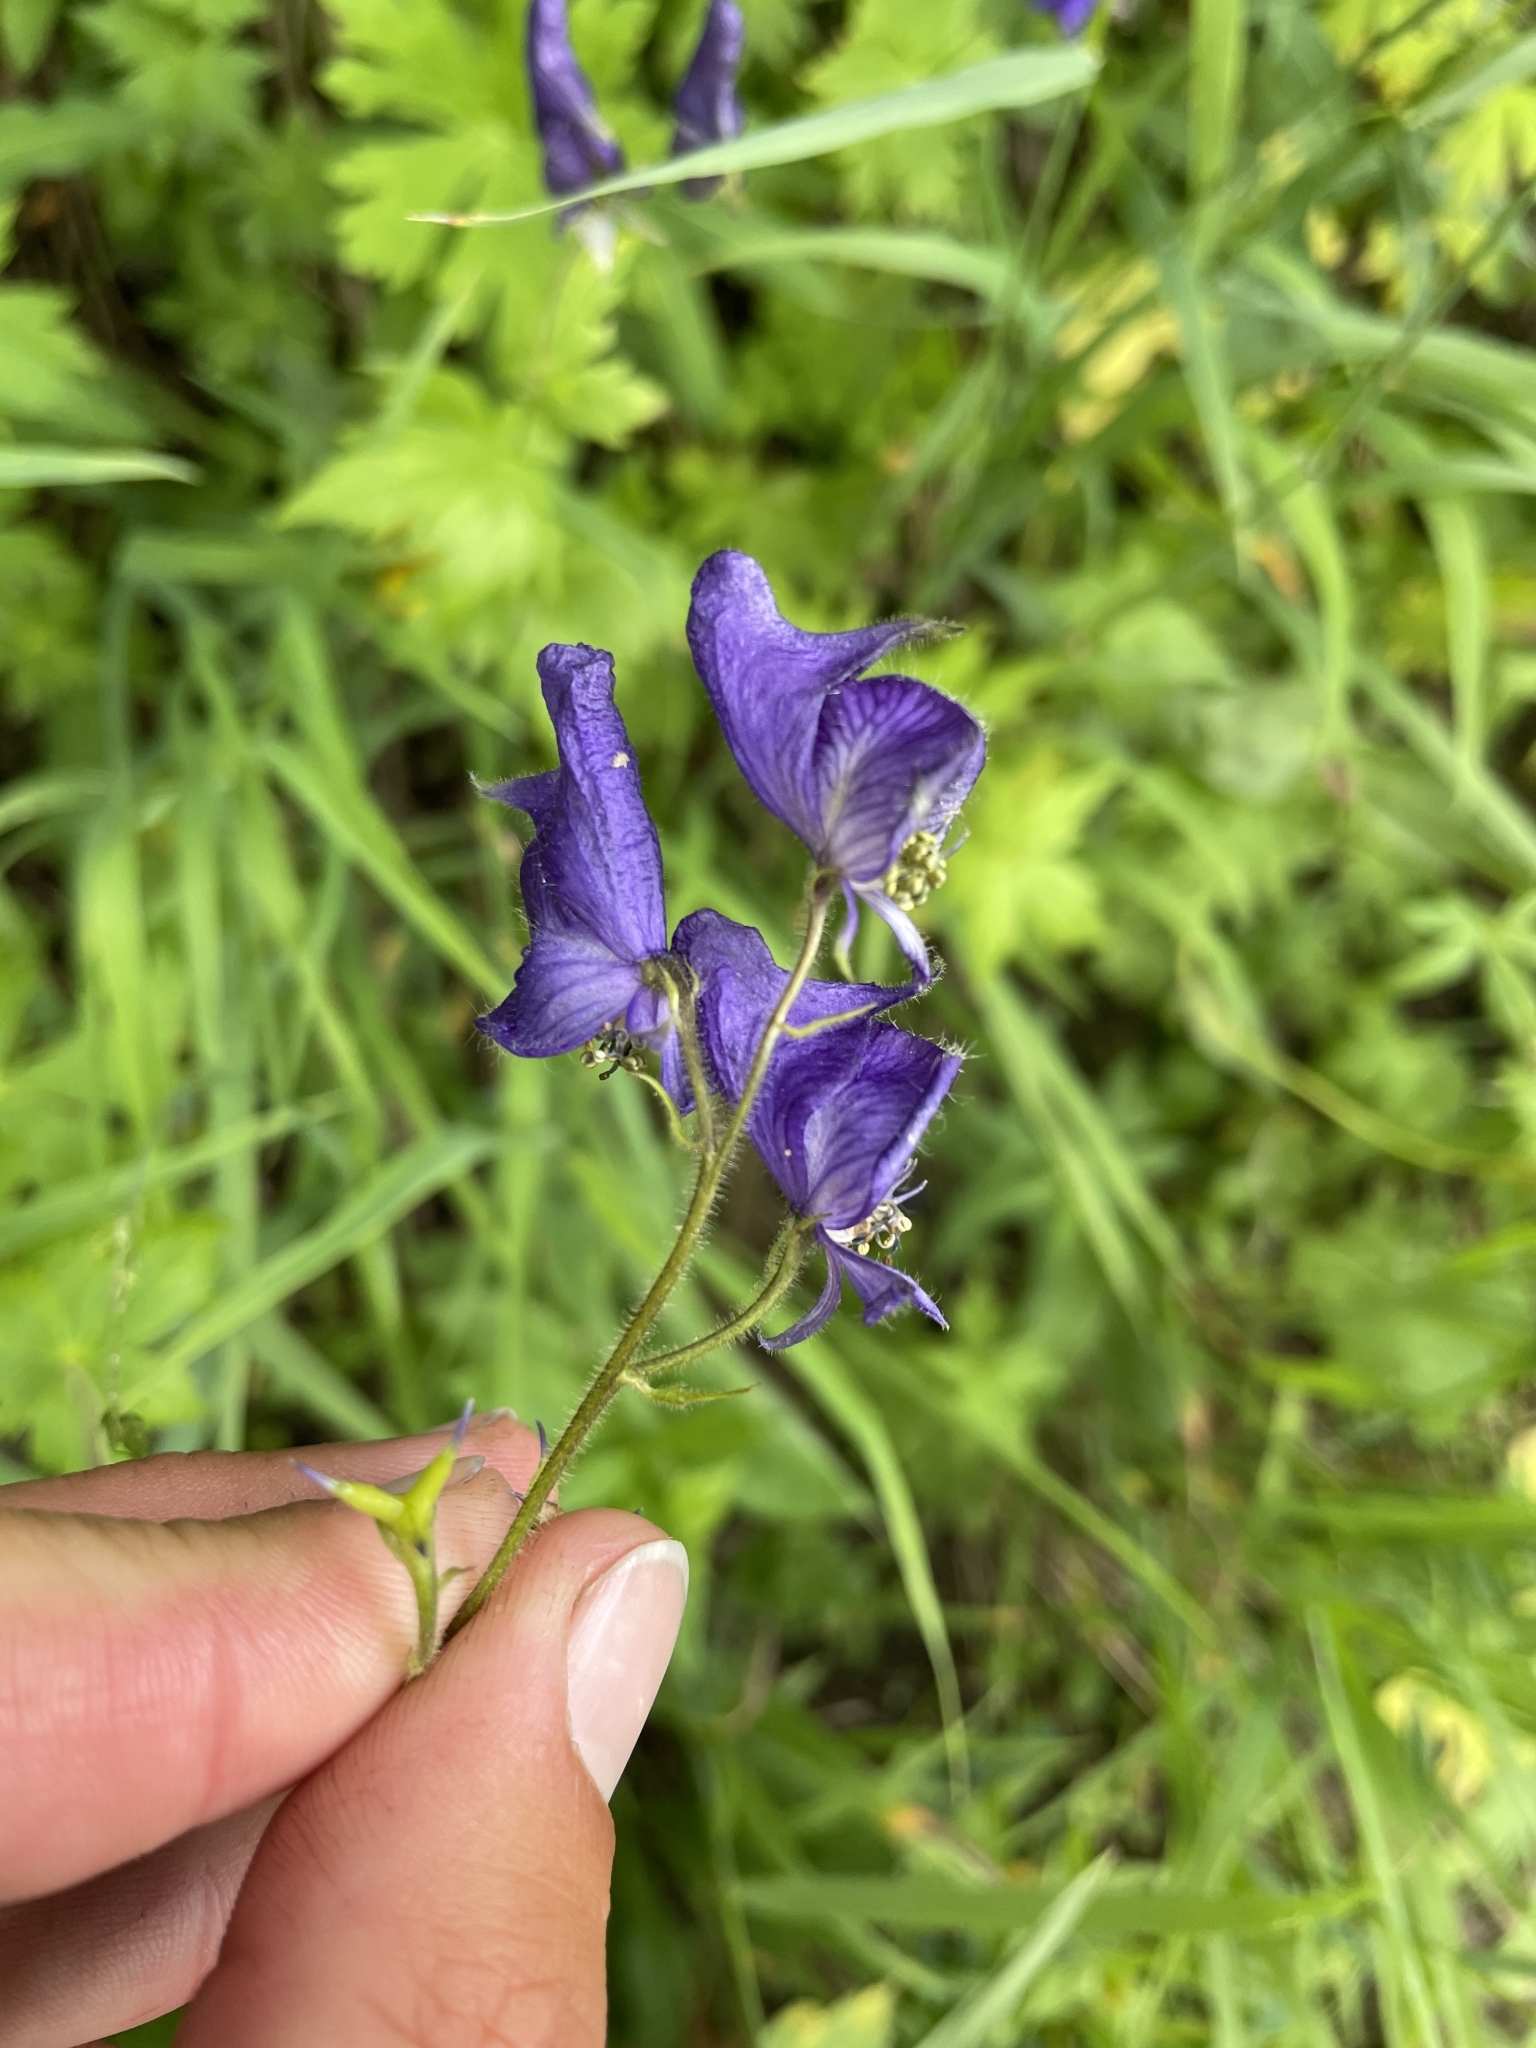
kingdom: Plantae
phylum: Tracheophyta
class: Magnoliopsida
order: Ranunculales
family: Ranunculaceae
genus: Aconitum
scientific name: Aconitum columbianum
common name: Columbia aconite
